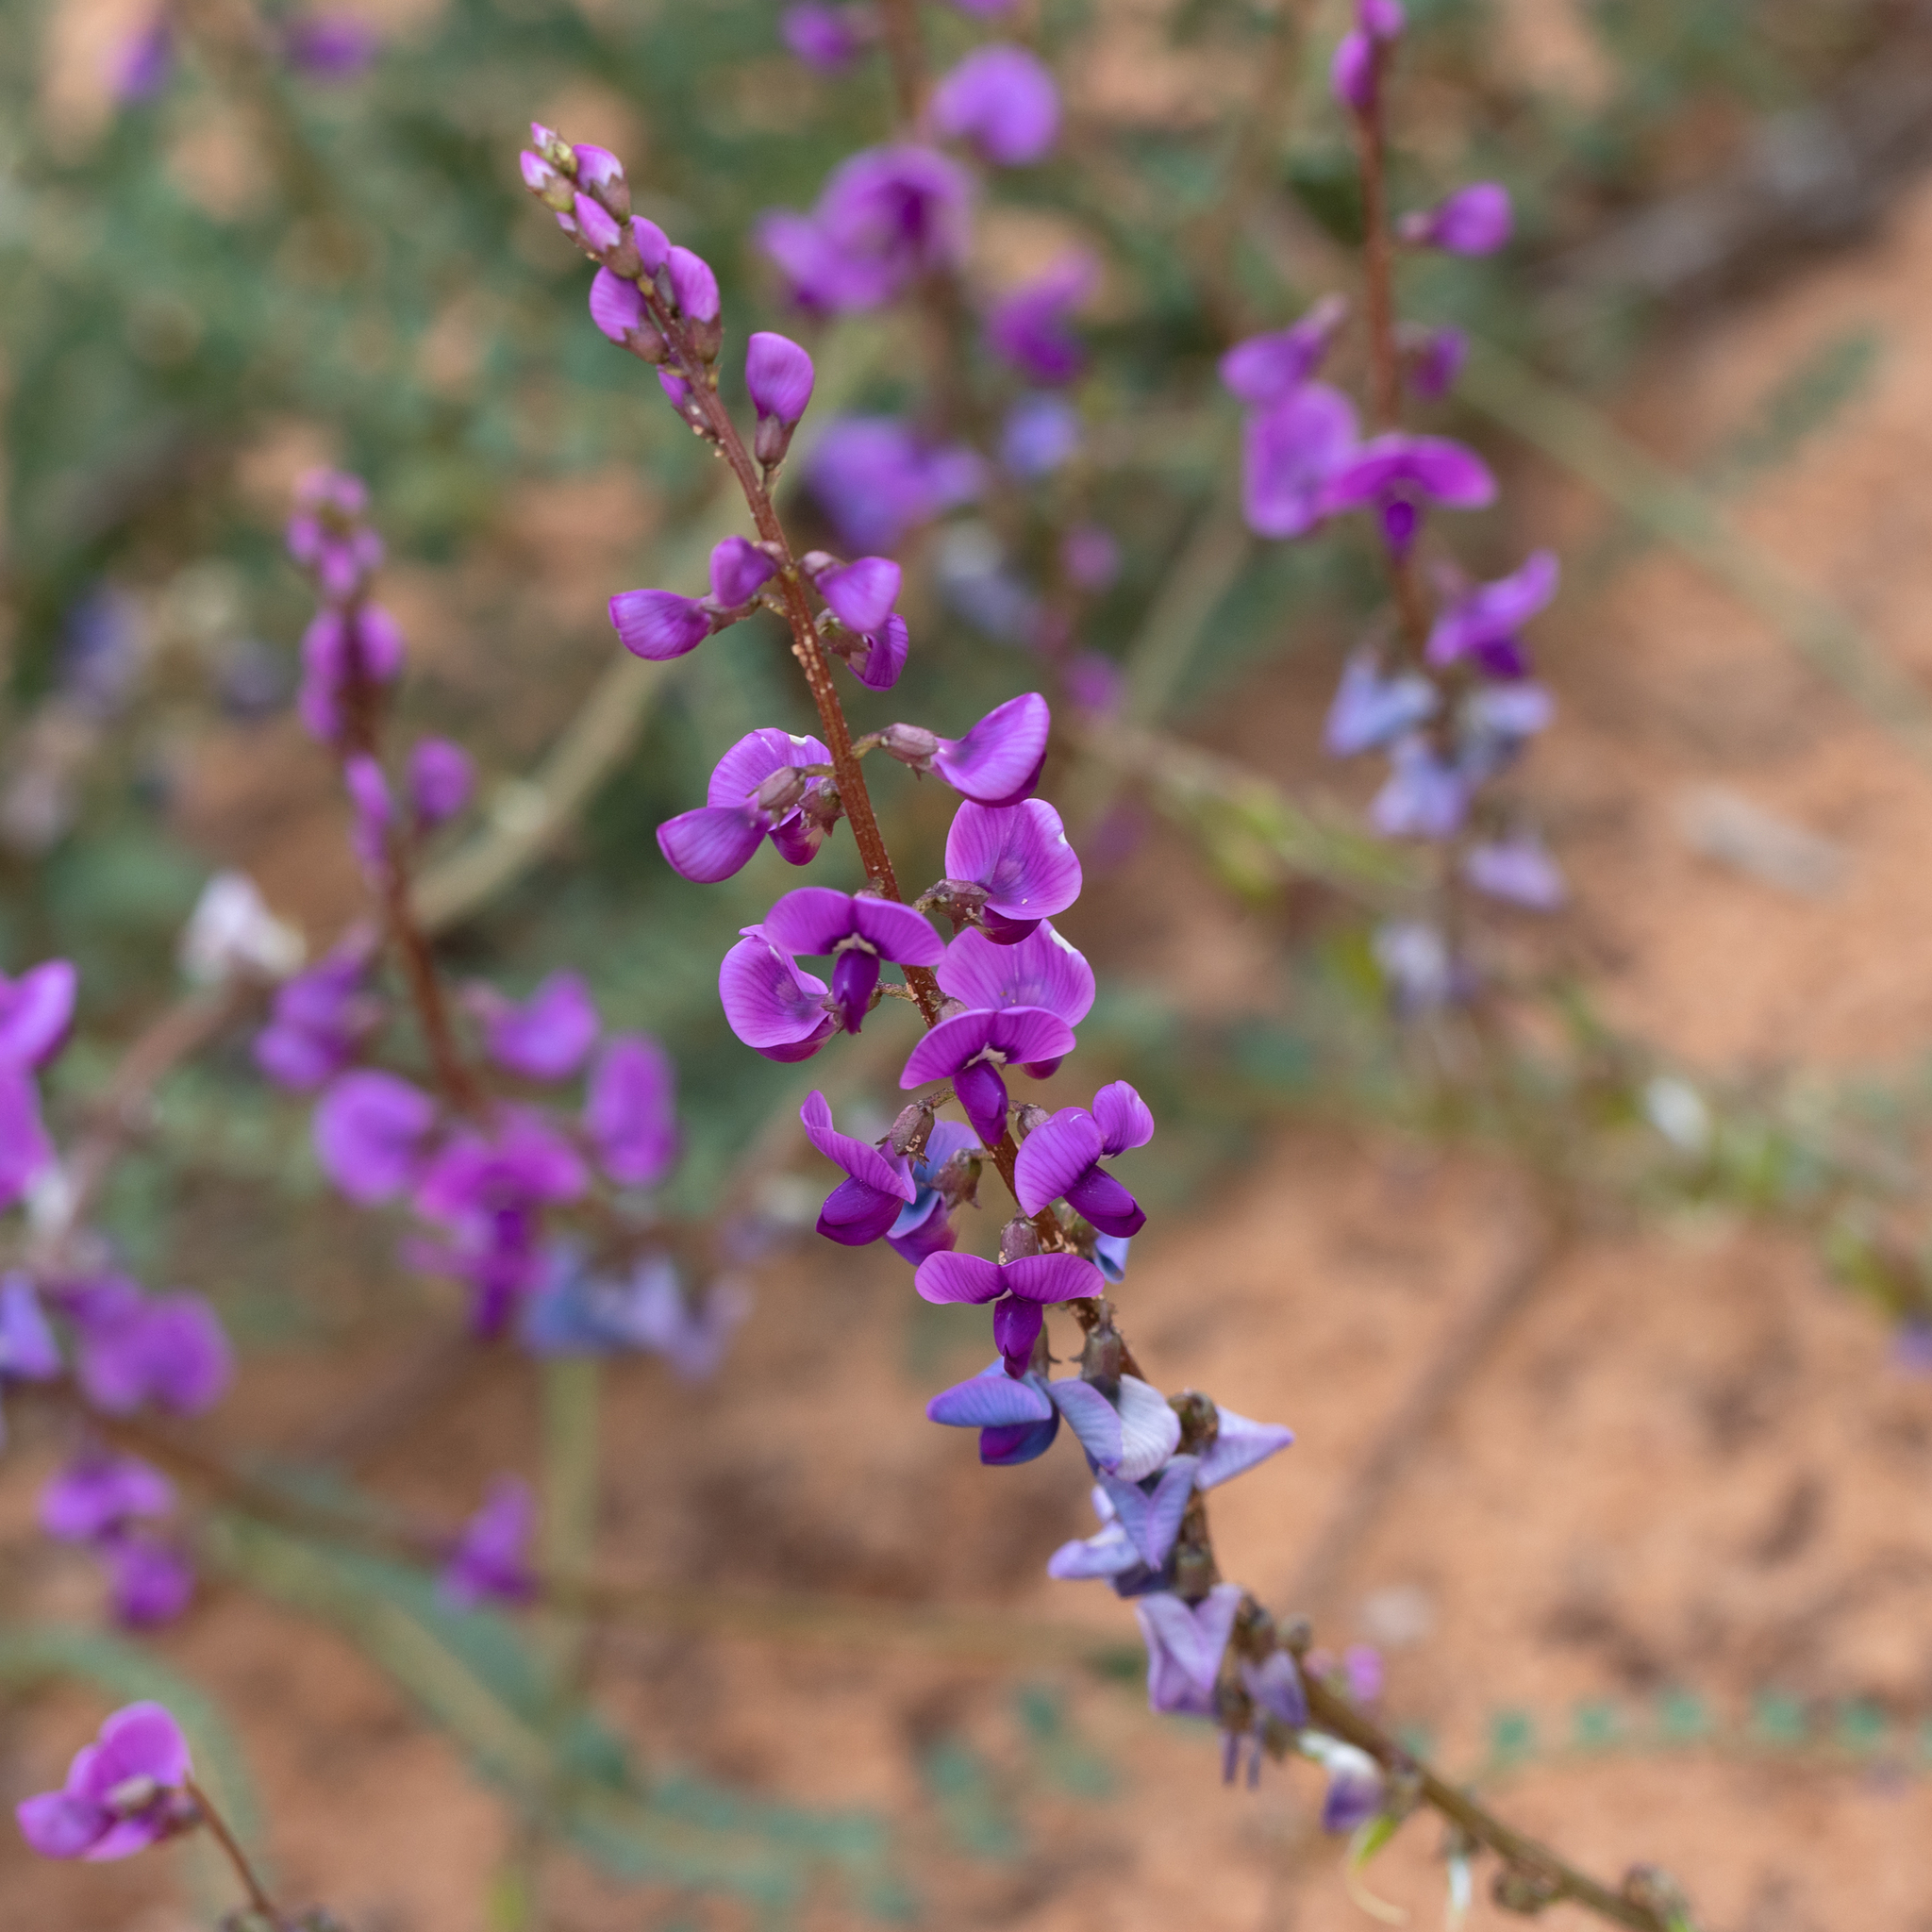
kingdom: Plantae
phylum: Tracheophyta
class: Magnoliopsida
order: Fabales
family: Fabaceae
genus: Swainsona
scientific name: Swainsona microphylla
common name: Small-leaf swainsona-pea
